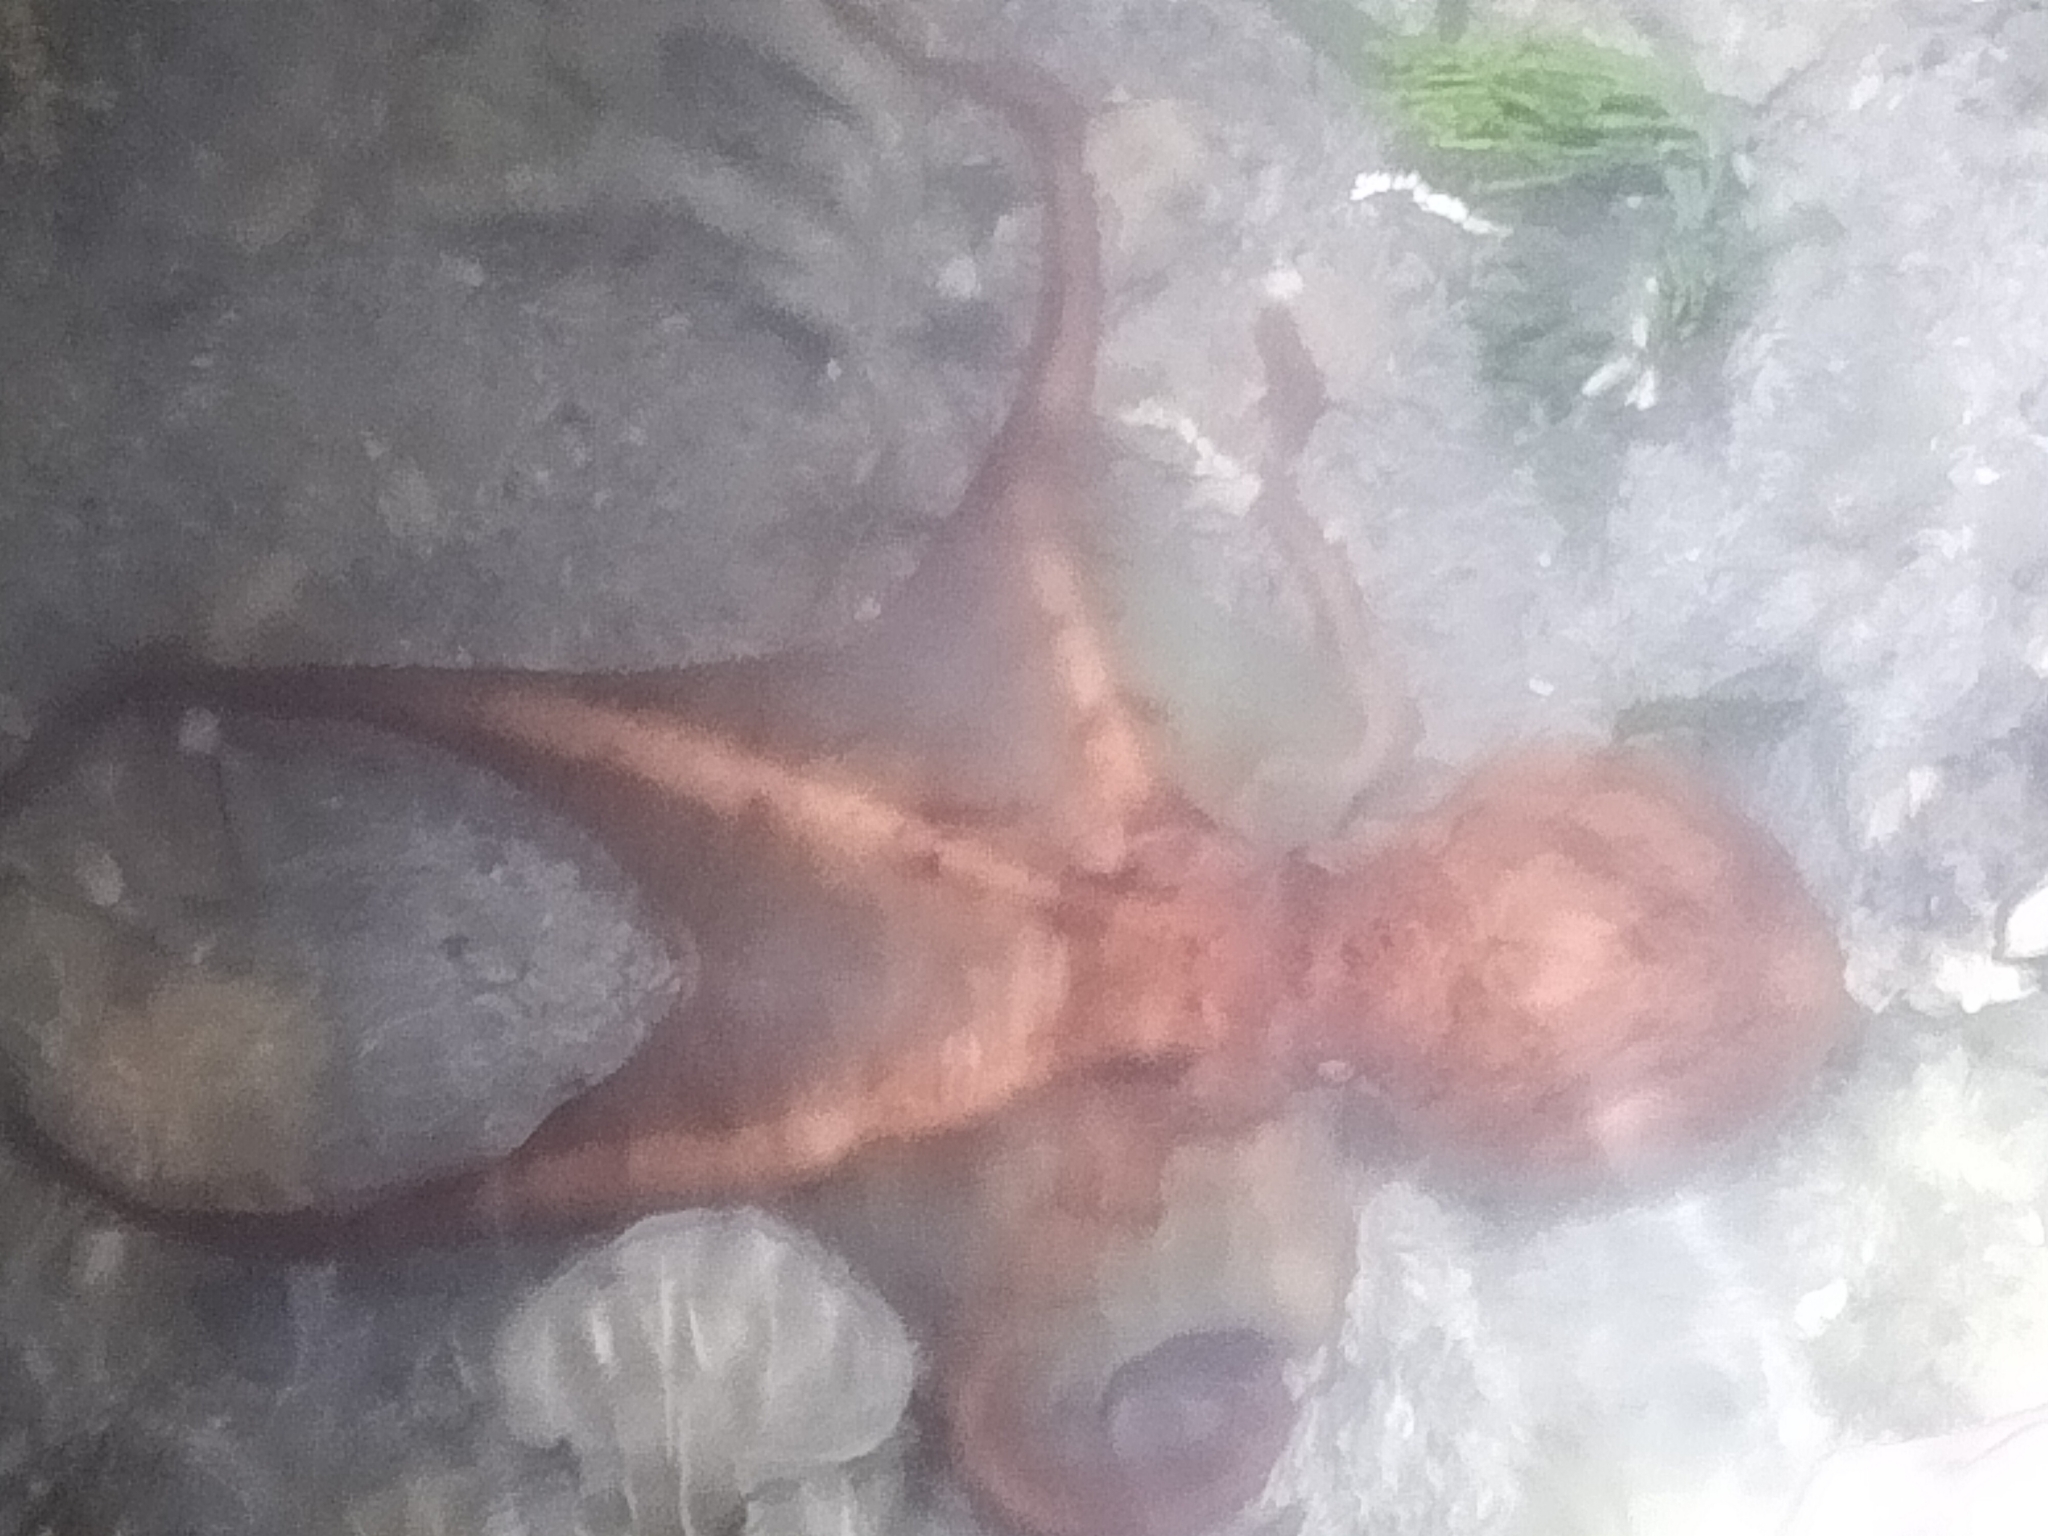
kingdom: Animalia
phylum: Mollusca
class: Cephalopoda
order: Octopoda
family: Octopodidae
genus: Callistoctopus
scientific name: Callistoctopus dierythraeus
